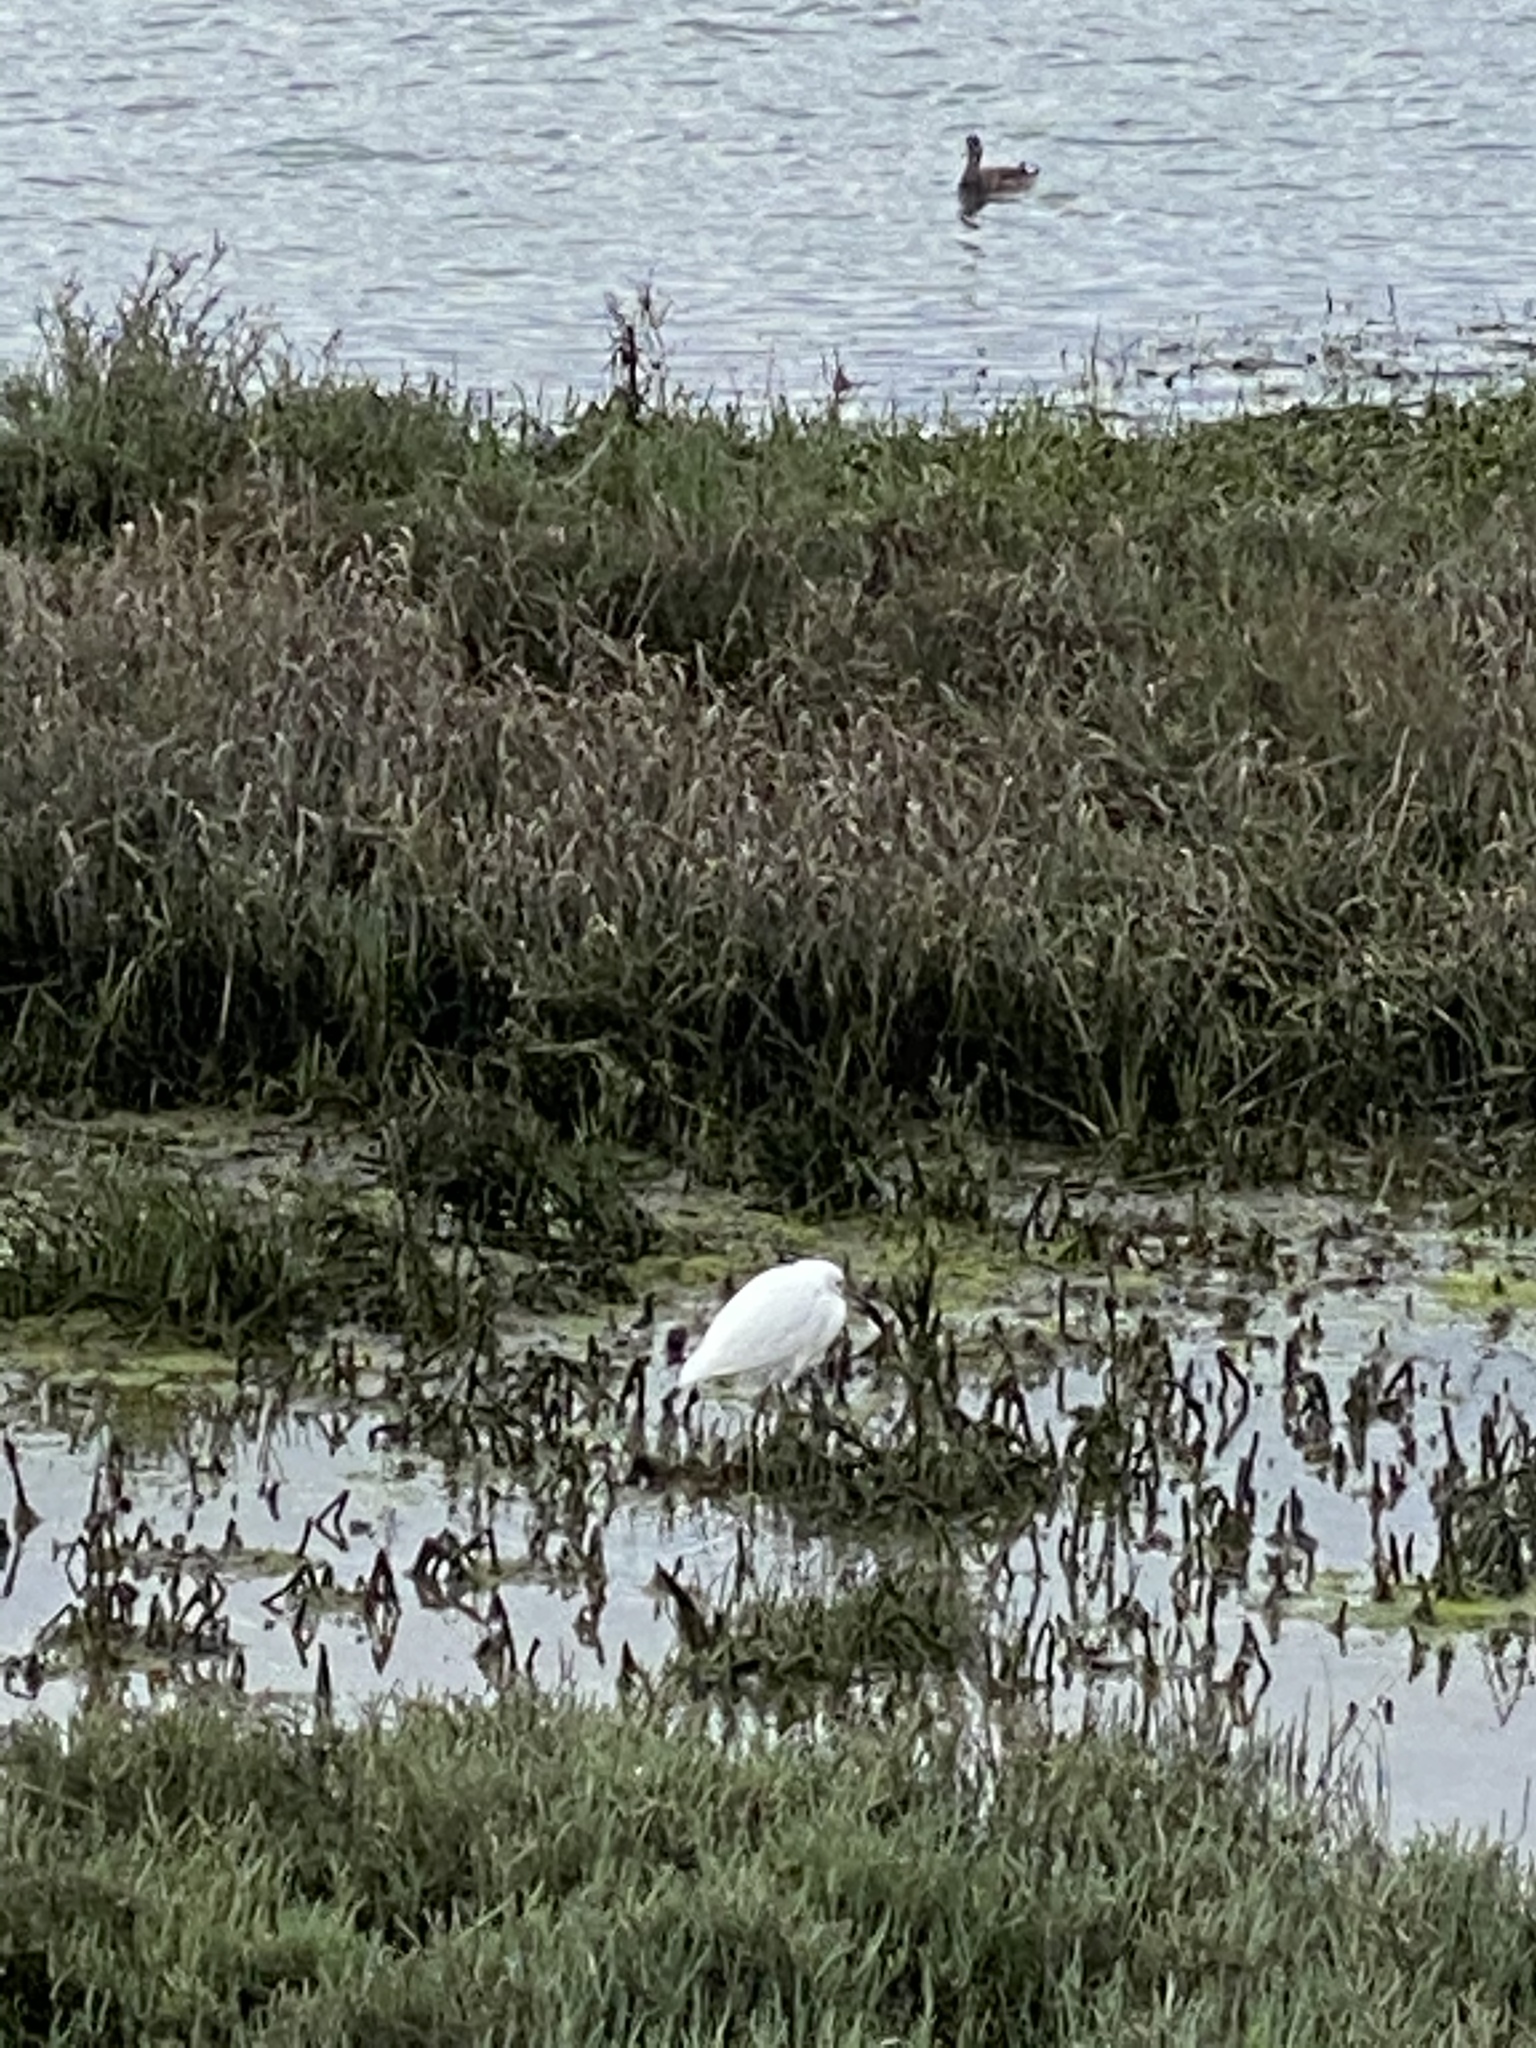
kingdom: Animalia
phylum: Chordata
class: Aves
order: Pelecaniformes
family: Ardeidae
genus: Egretta
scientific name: Egretta thula
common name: Snowy egret
